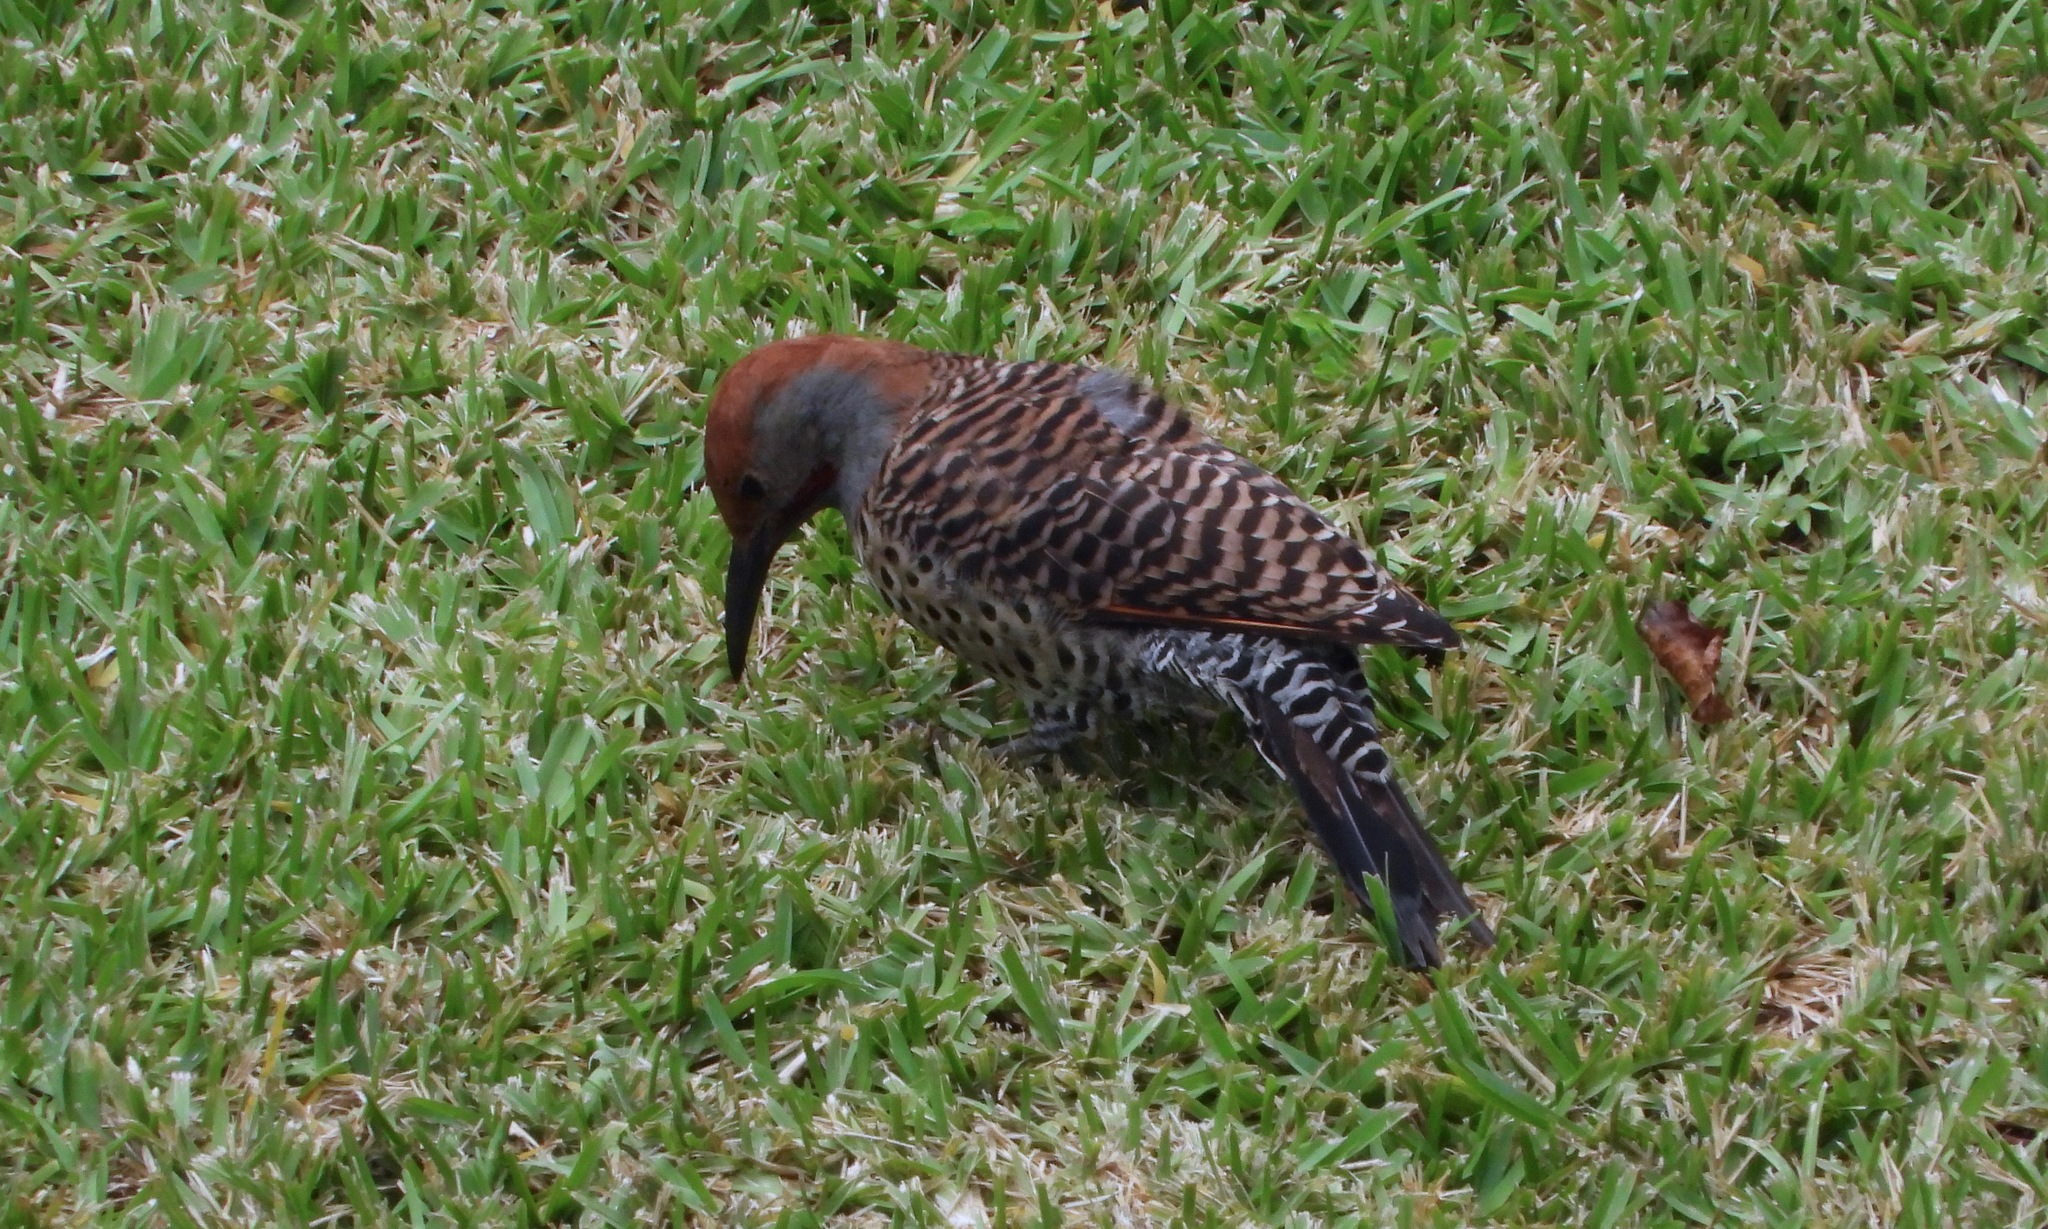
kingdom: Animalia
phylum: Chordata
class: Aves
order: Piciformes
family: Picidae
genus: Colaptes
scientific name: Colaptes auratus
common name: Northern flicker
